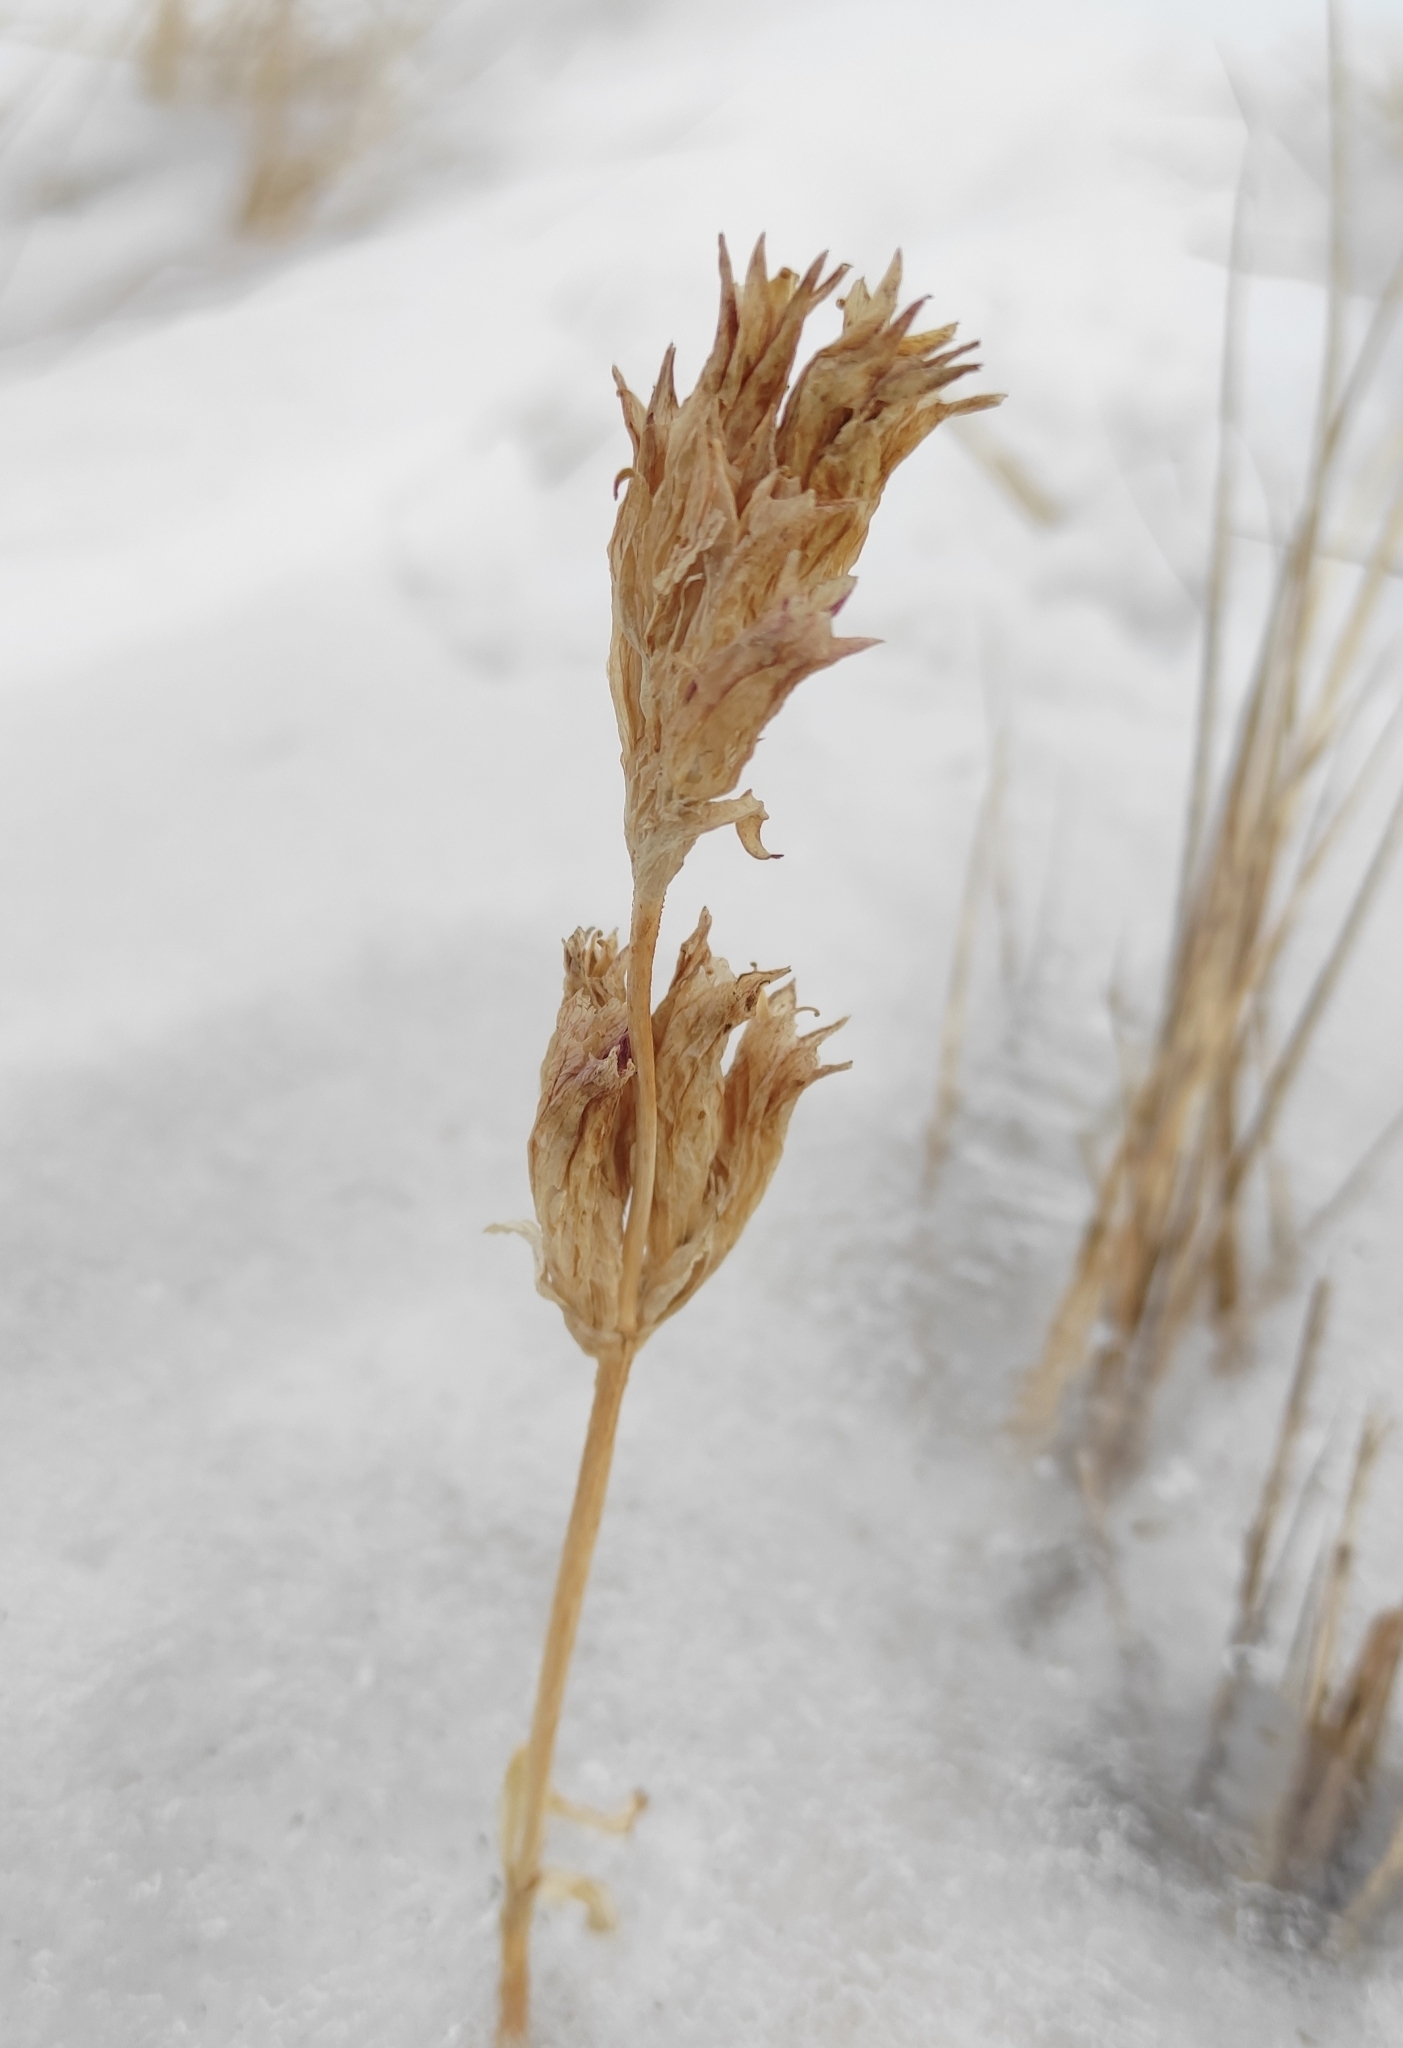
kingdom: Plantae
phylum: Tracheophyta
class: Magnoliopsida
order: Gentianales
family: Gentianaceae
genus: Gentianopsis
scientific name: Gentianopsis barbata
